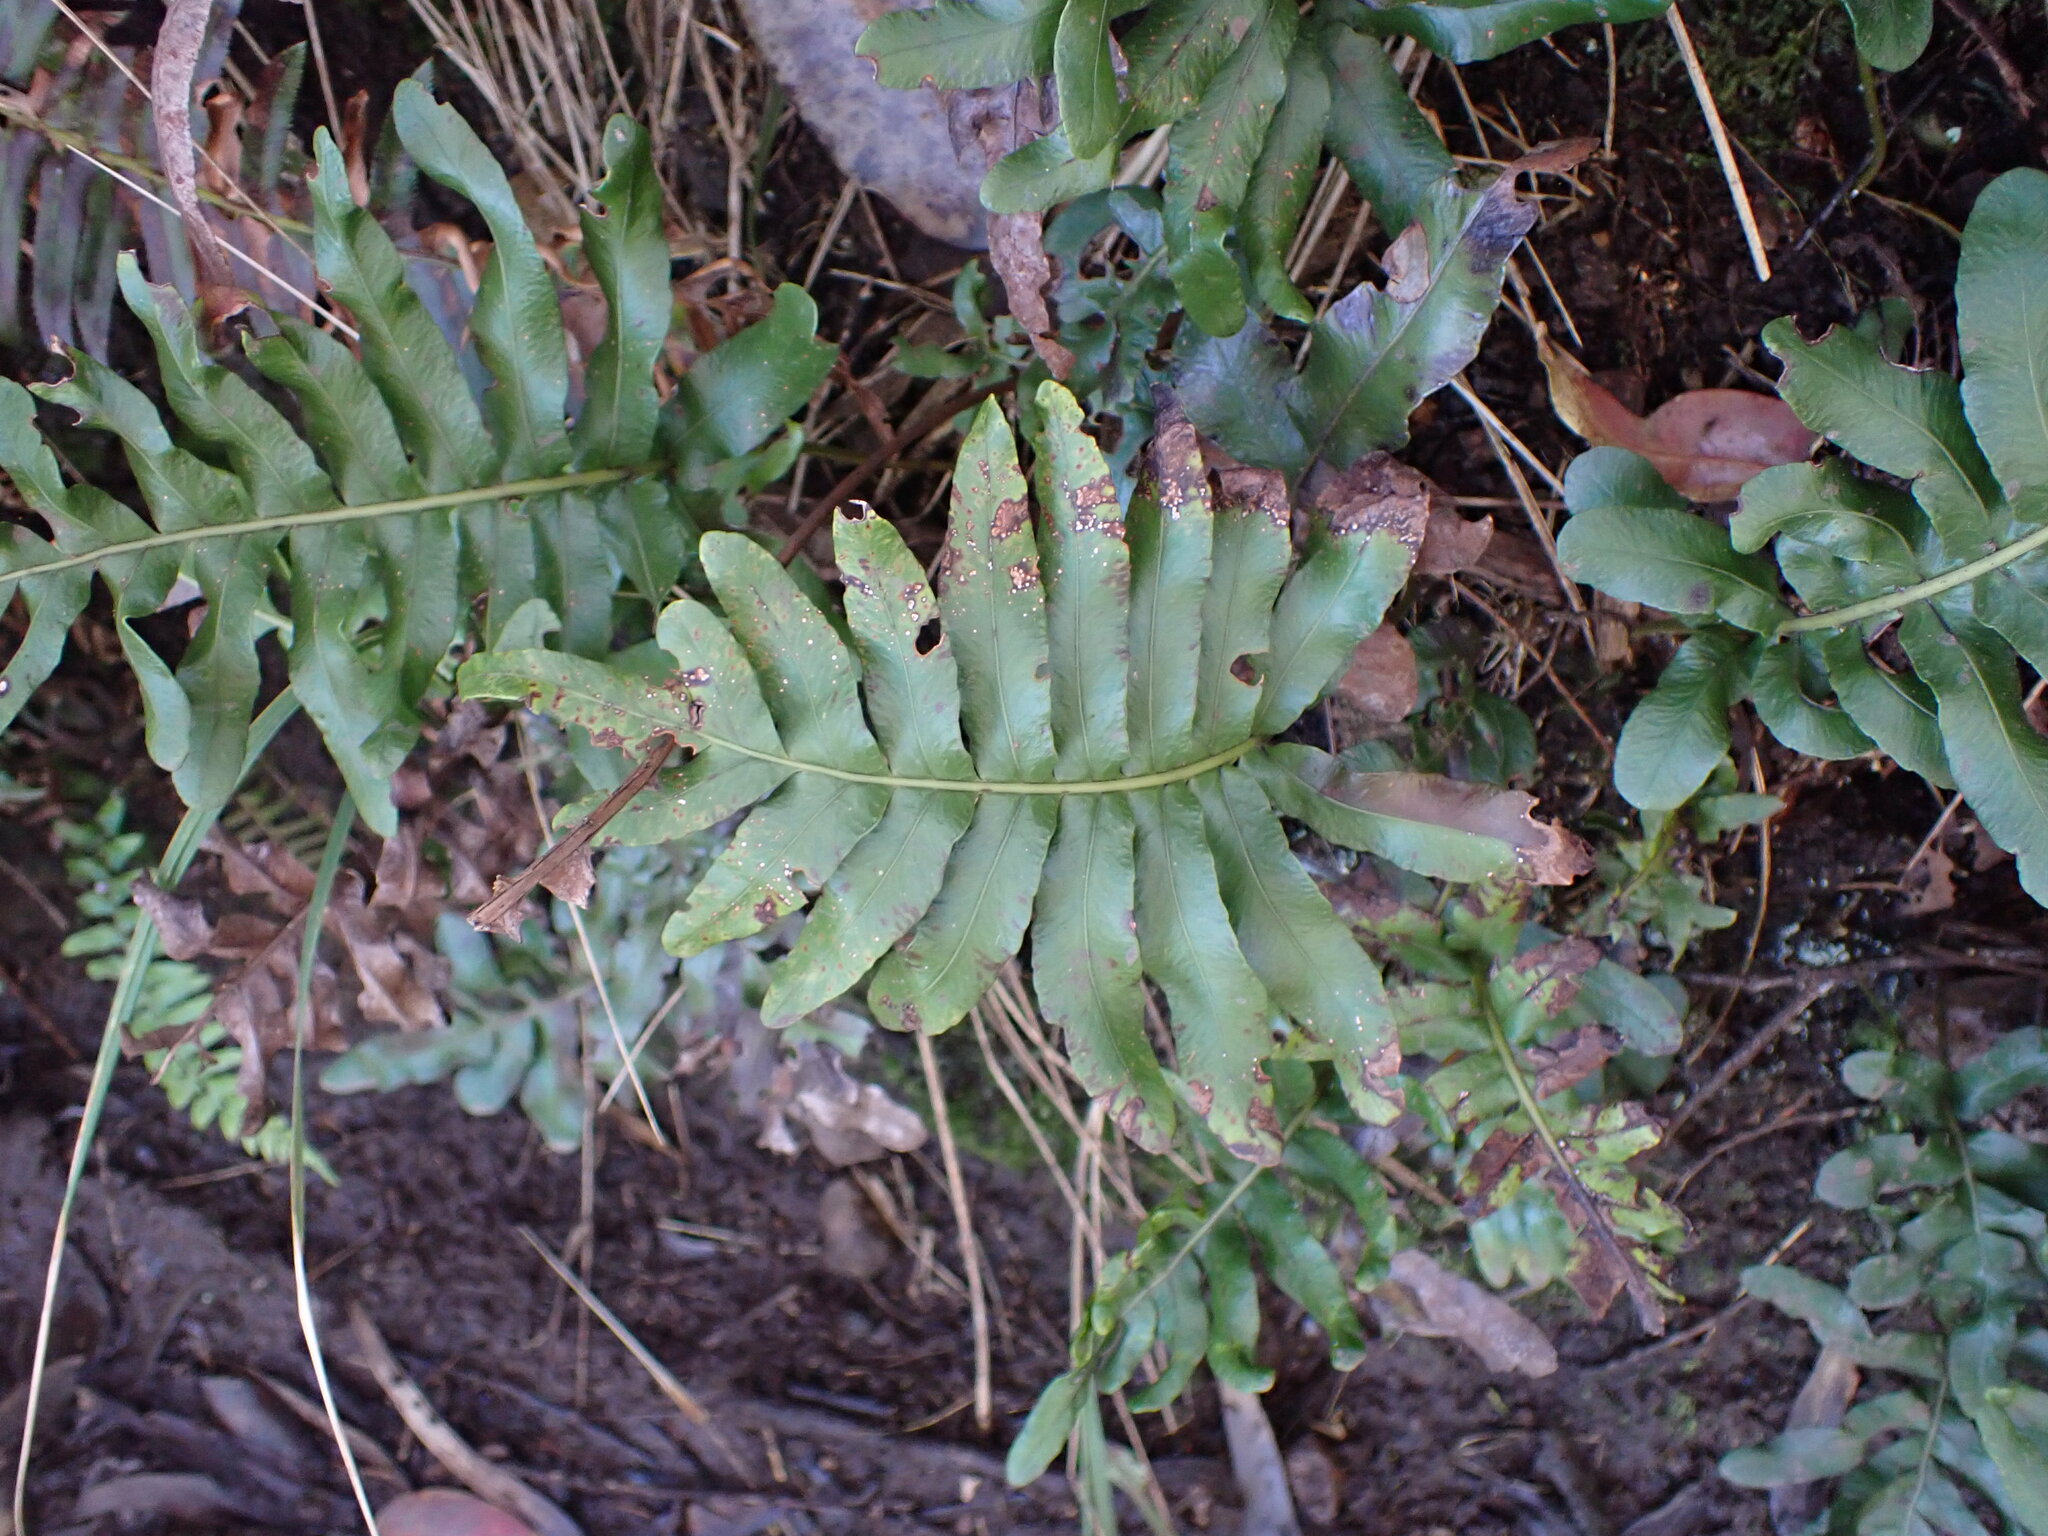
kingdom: Plantae
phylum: Tracheophyta
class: Polypodiopsida
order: Polypodiales
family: Polypodiaceae
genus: Polypodium
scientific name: Polypodium scouleri
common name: Scouler's polypody
